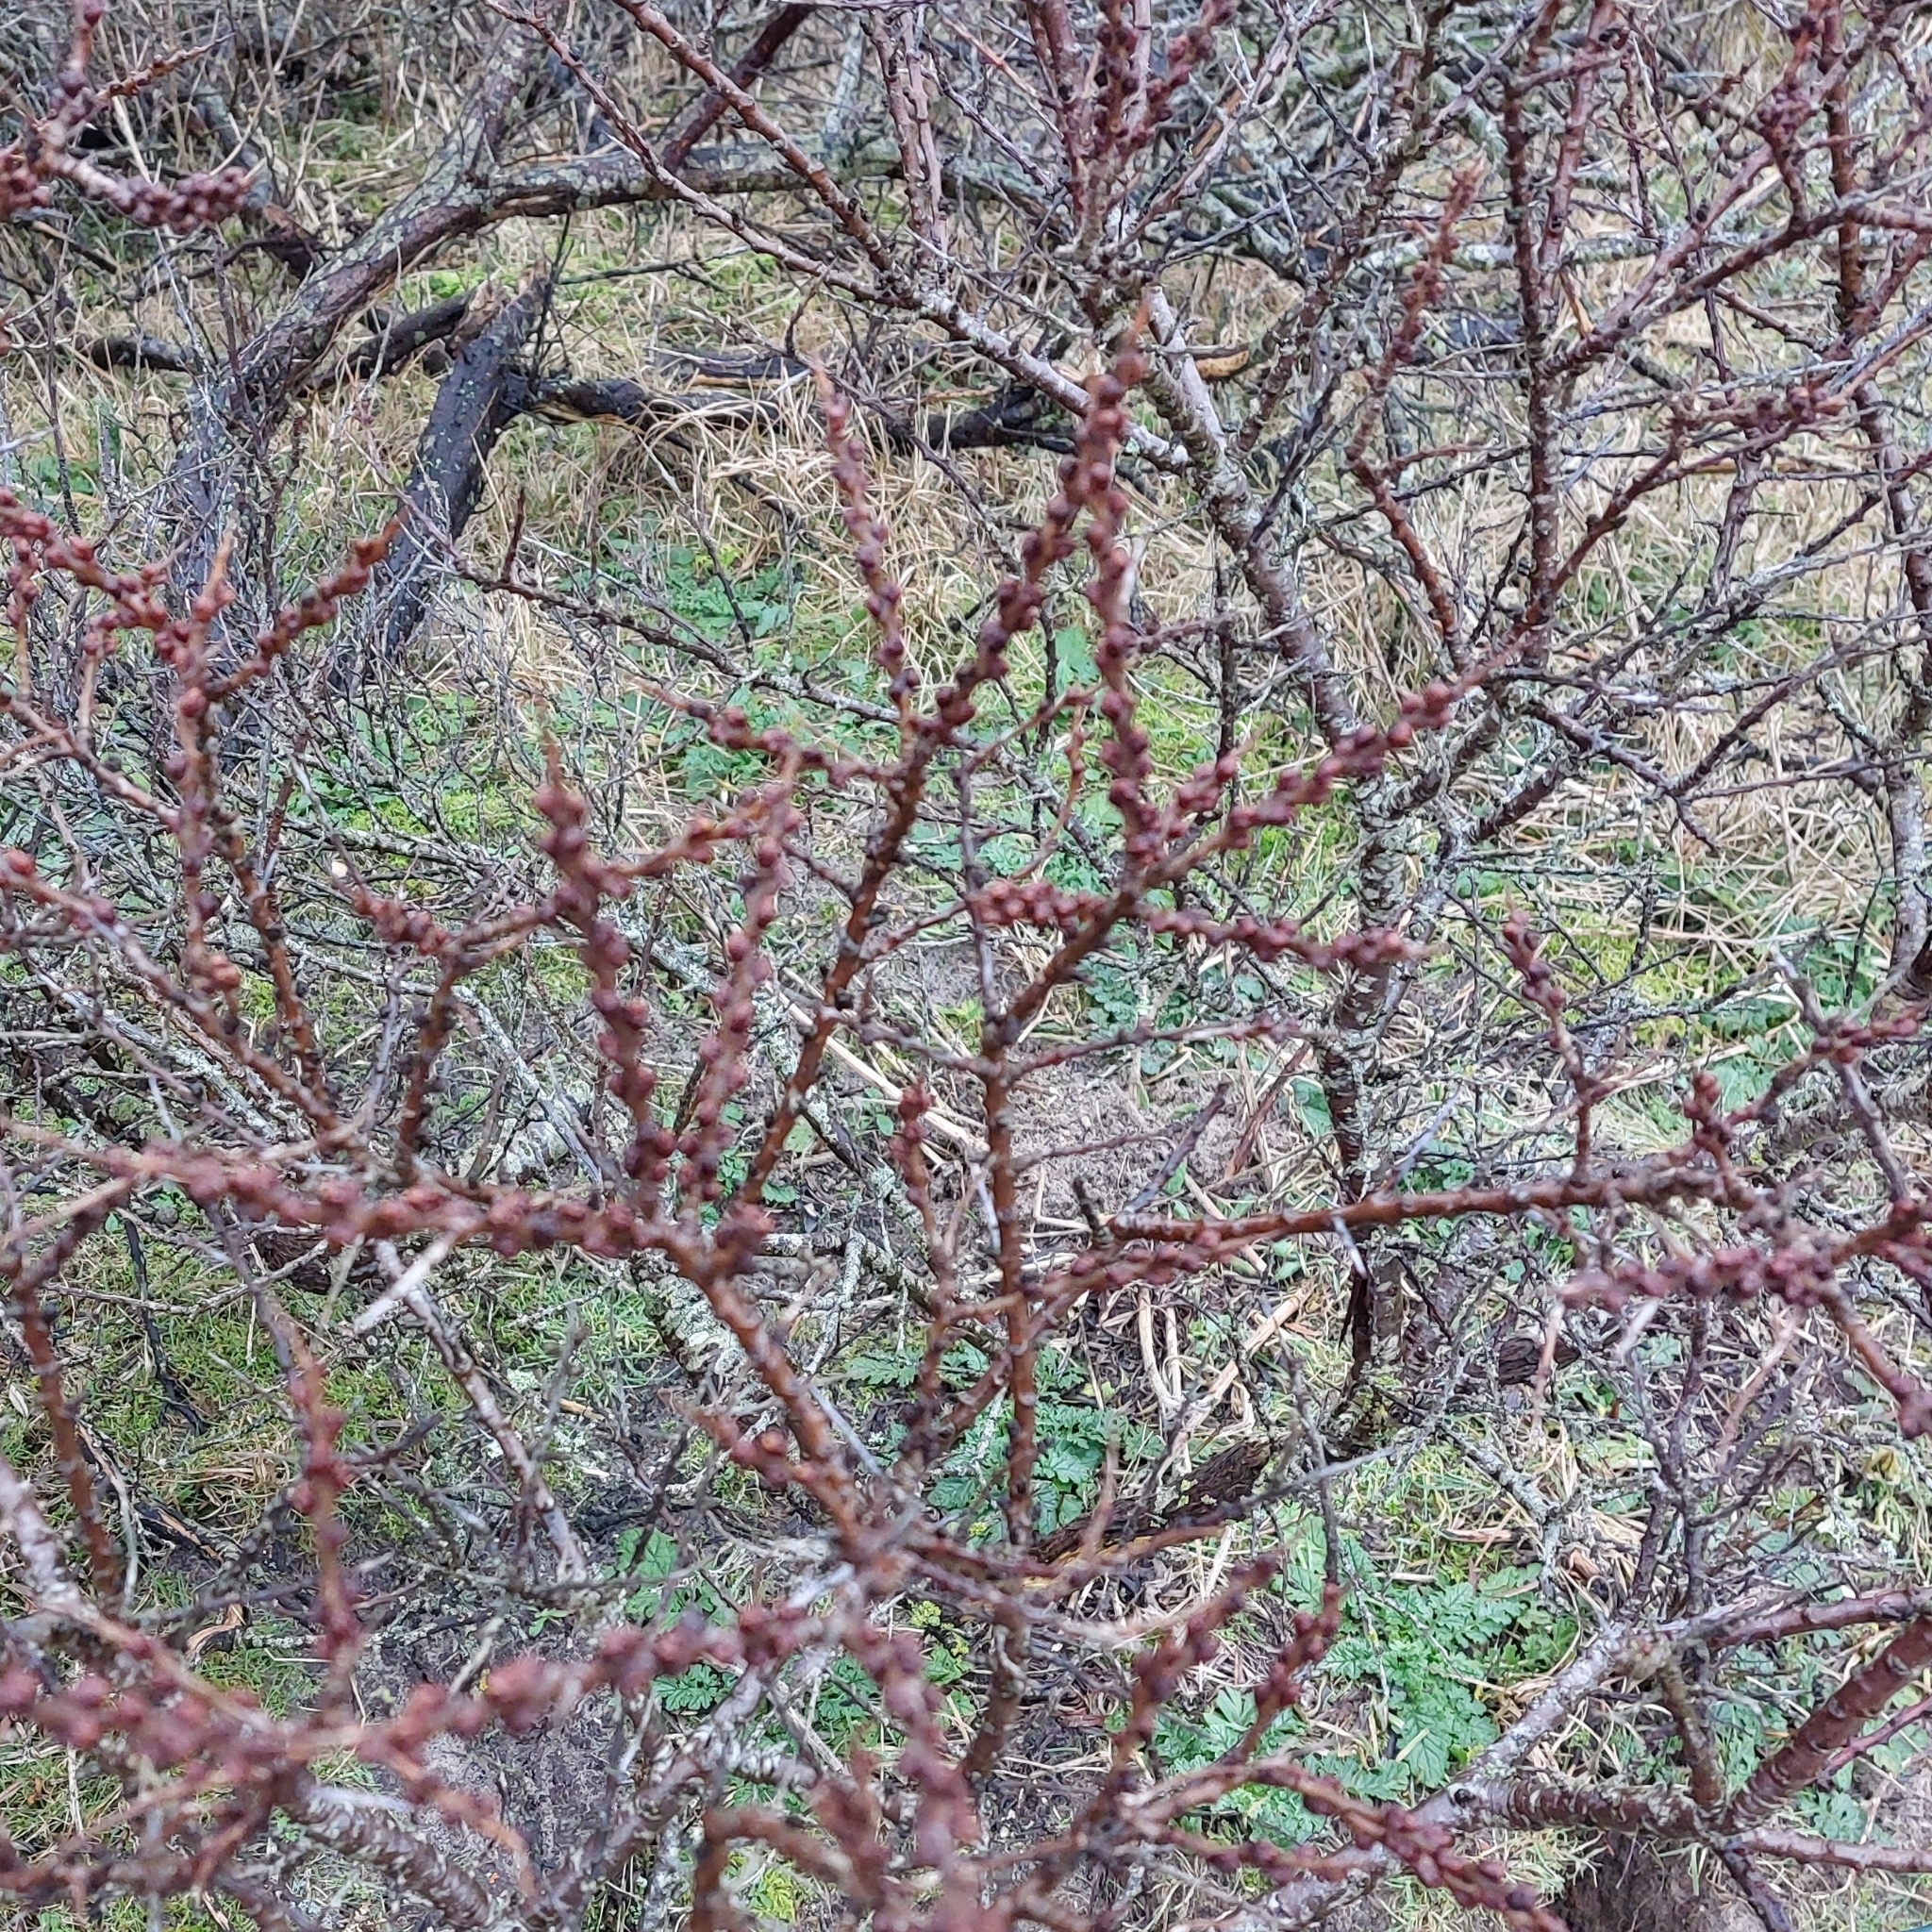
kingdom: Plantae
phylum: Tracheophyta
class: Magnoliopsida
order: Rosales
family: Elaeagnaceae
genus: Hippophae
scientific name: Hippophae rhamnoides
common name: Sea-buckthorn
